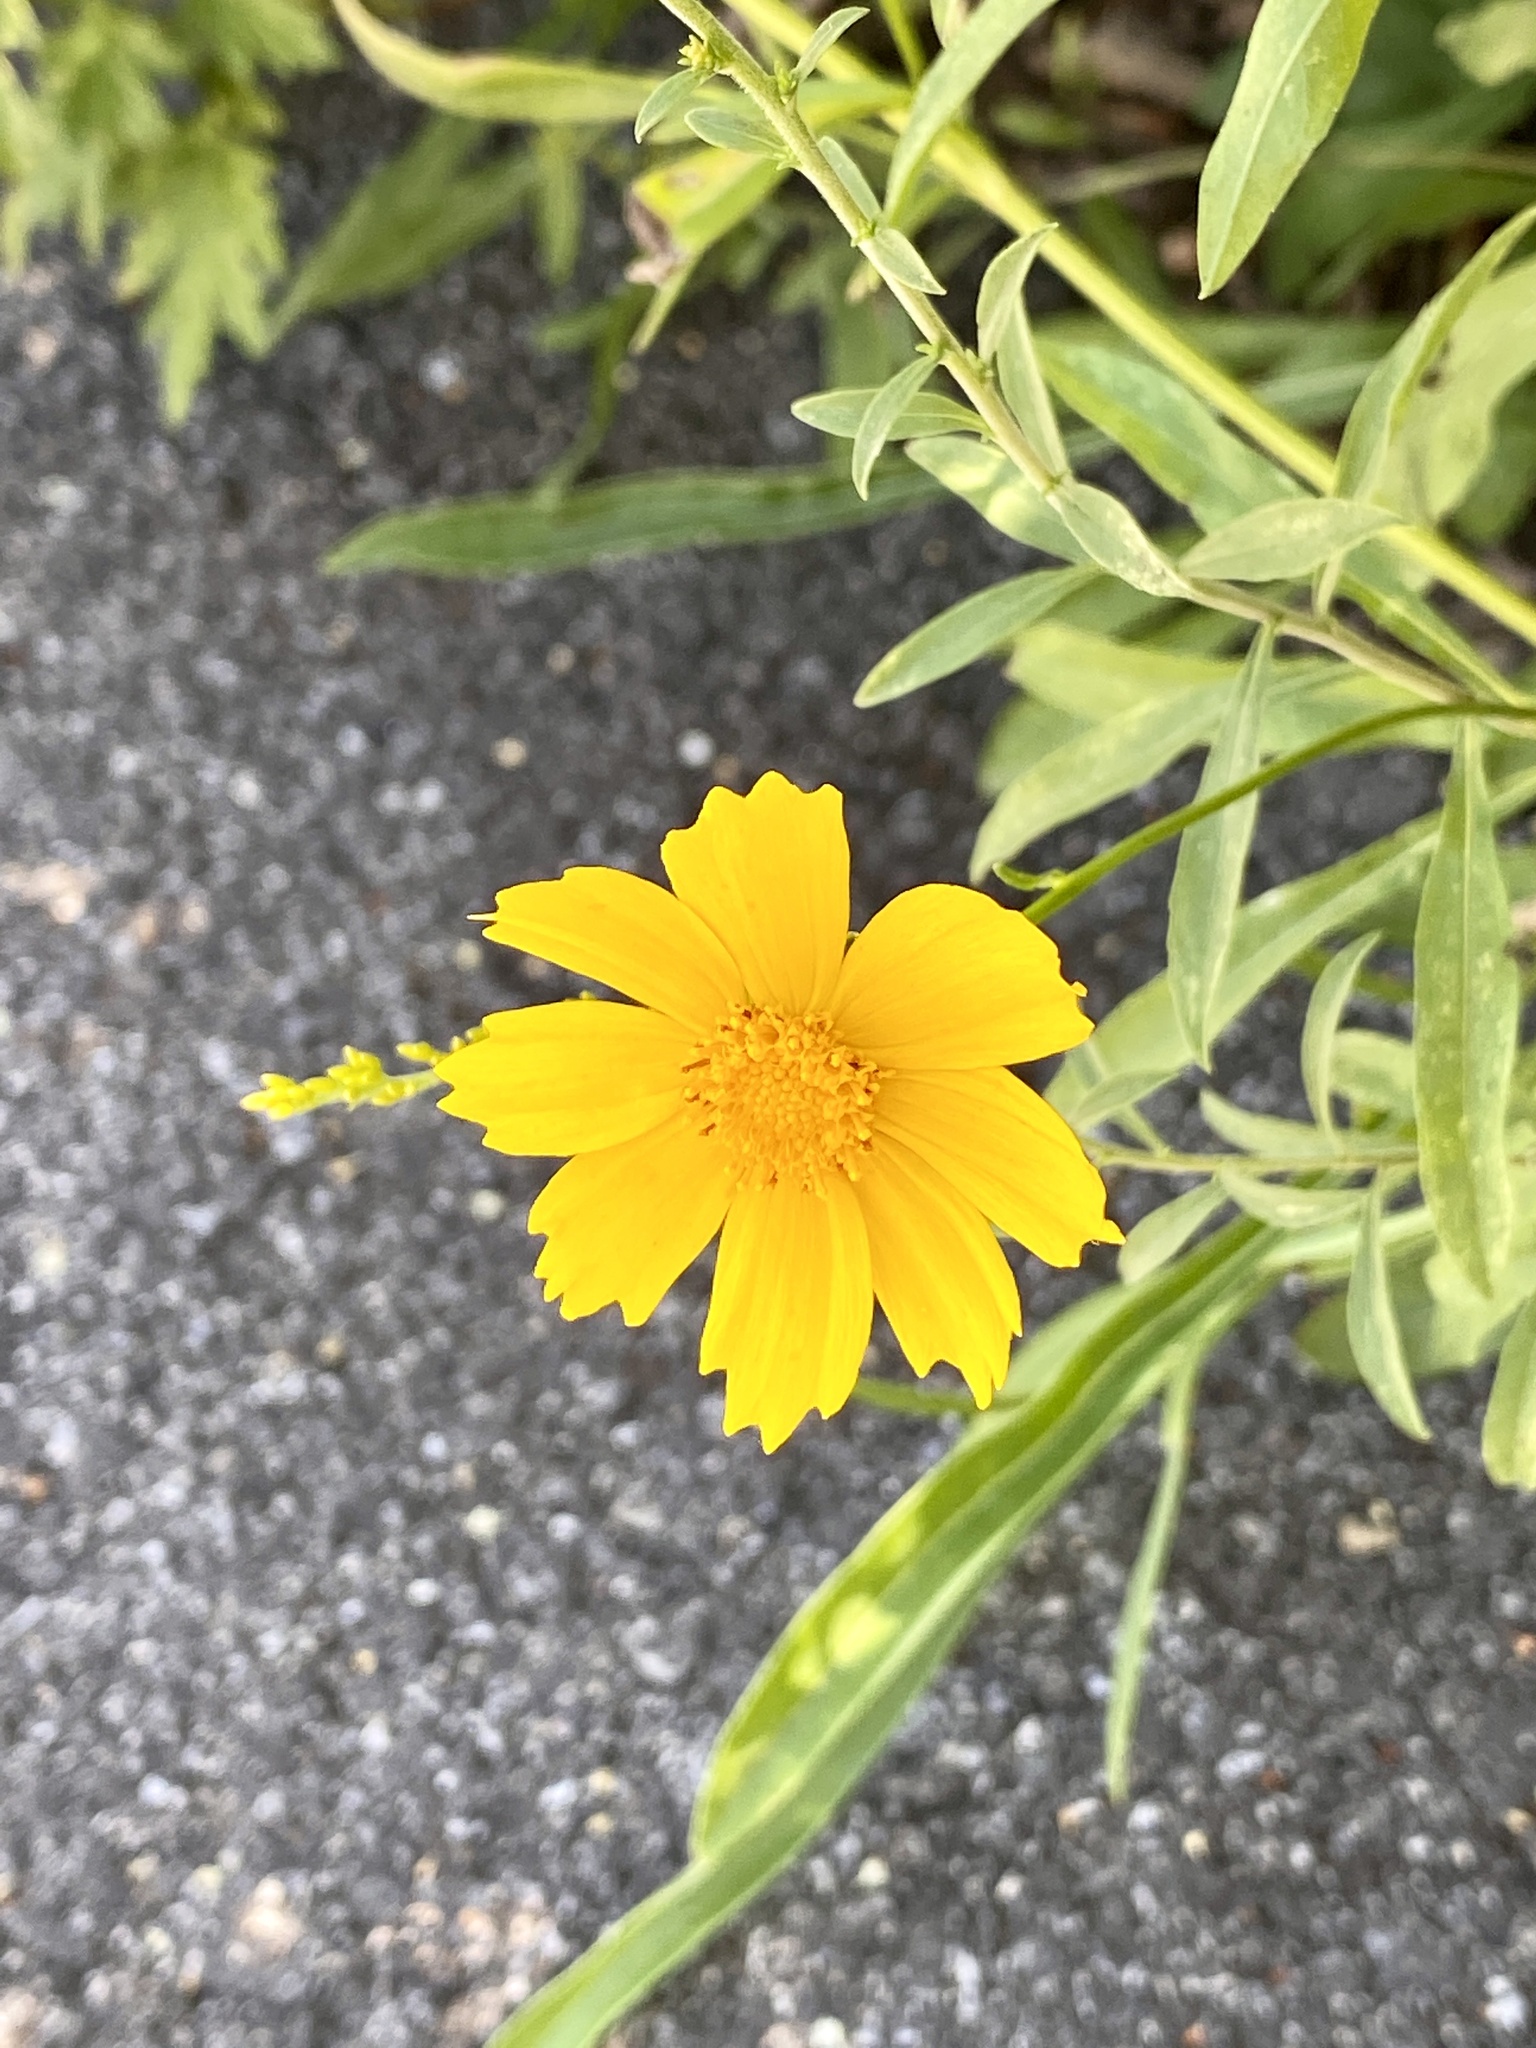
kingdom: Plantae
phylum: Tracheophyta
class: Magnoliopsida
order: Asterales
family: Asteraceae
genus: Coreopsis
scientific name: Coreopsis lanceolata
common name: Garden coreopsis
